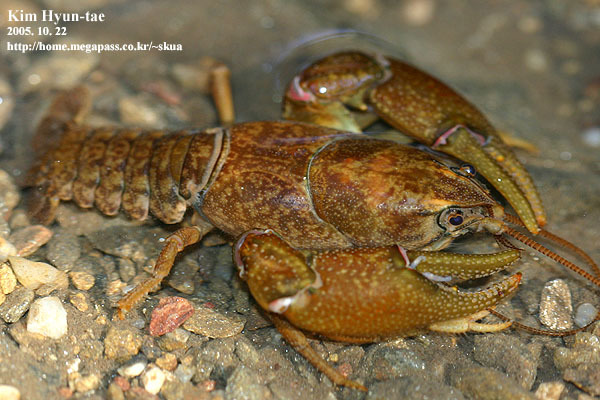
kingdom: Animalia
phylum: Arthropoda
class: Malacostraca
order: Decapoda
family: Cambaroididae
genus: Cambaroides
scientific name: Cambaroides similis
